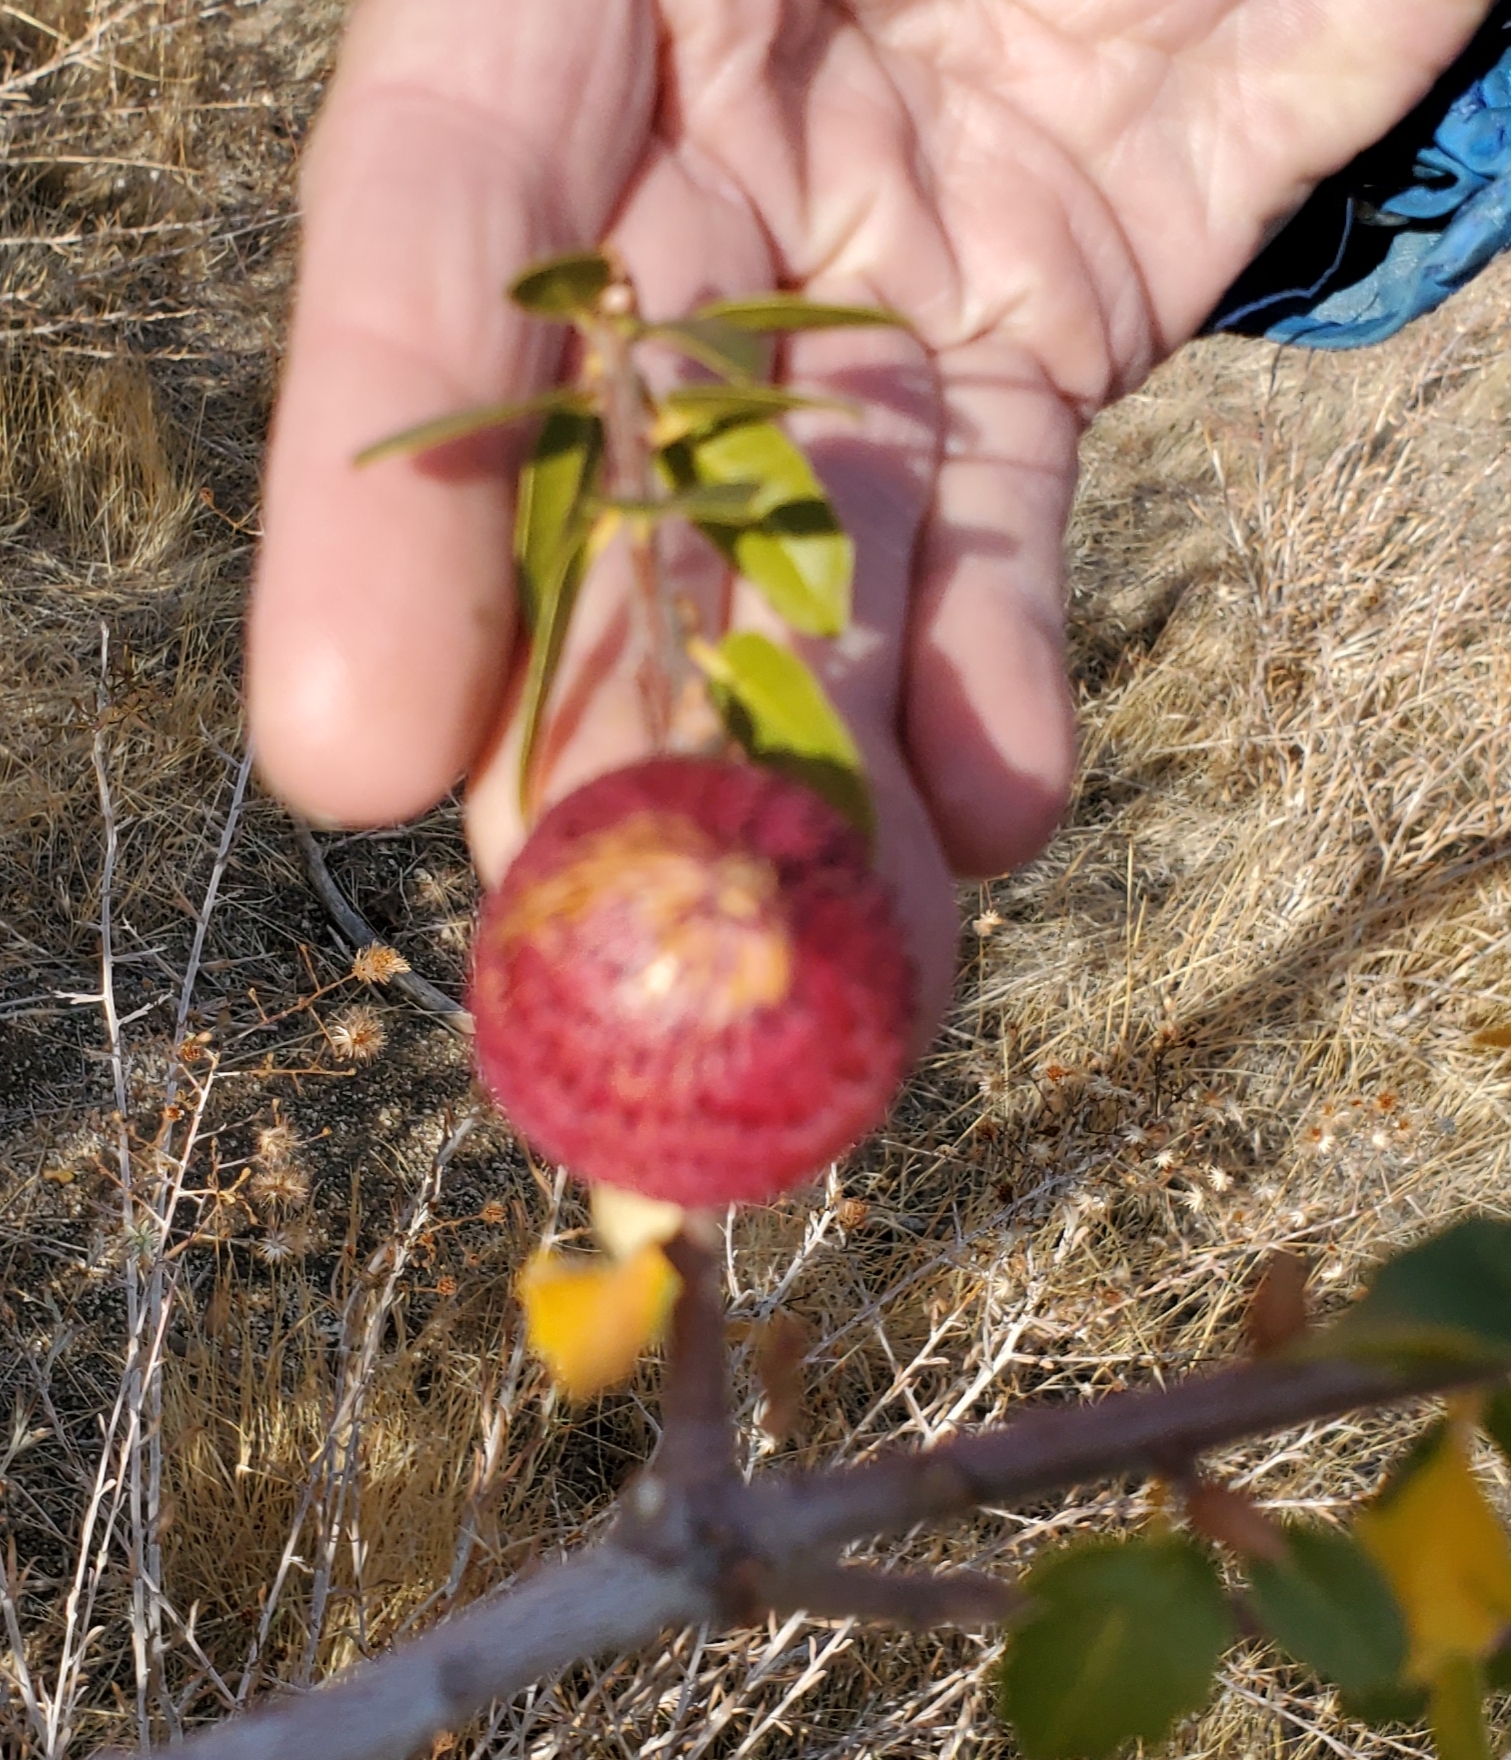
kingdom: Animalia
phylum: Arthropoda
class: Insecta
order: Hymenoptera
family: Cynipidae
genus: Amphibolips
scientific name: Amphibolips quercuspomiformis
